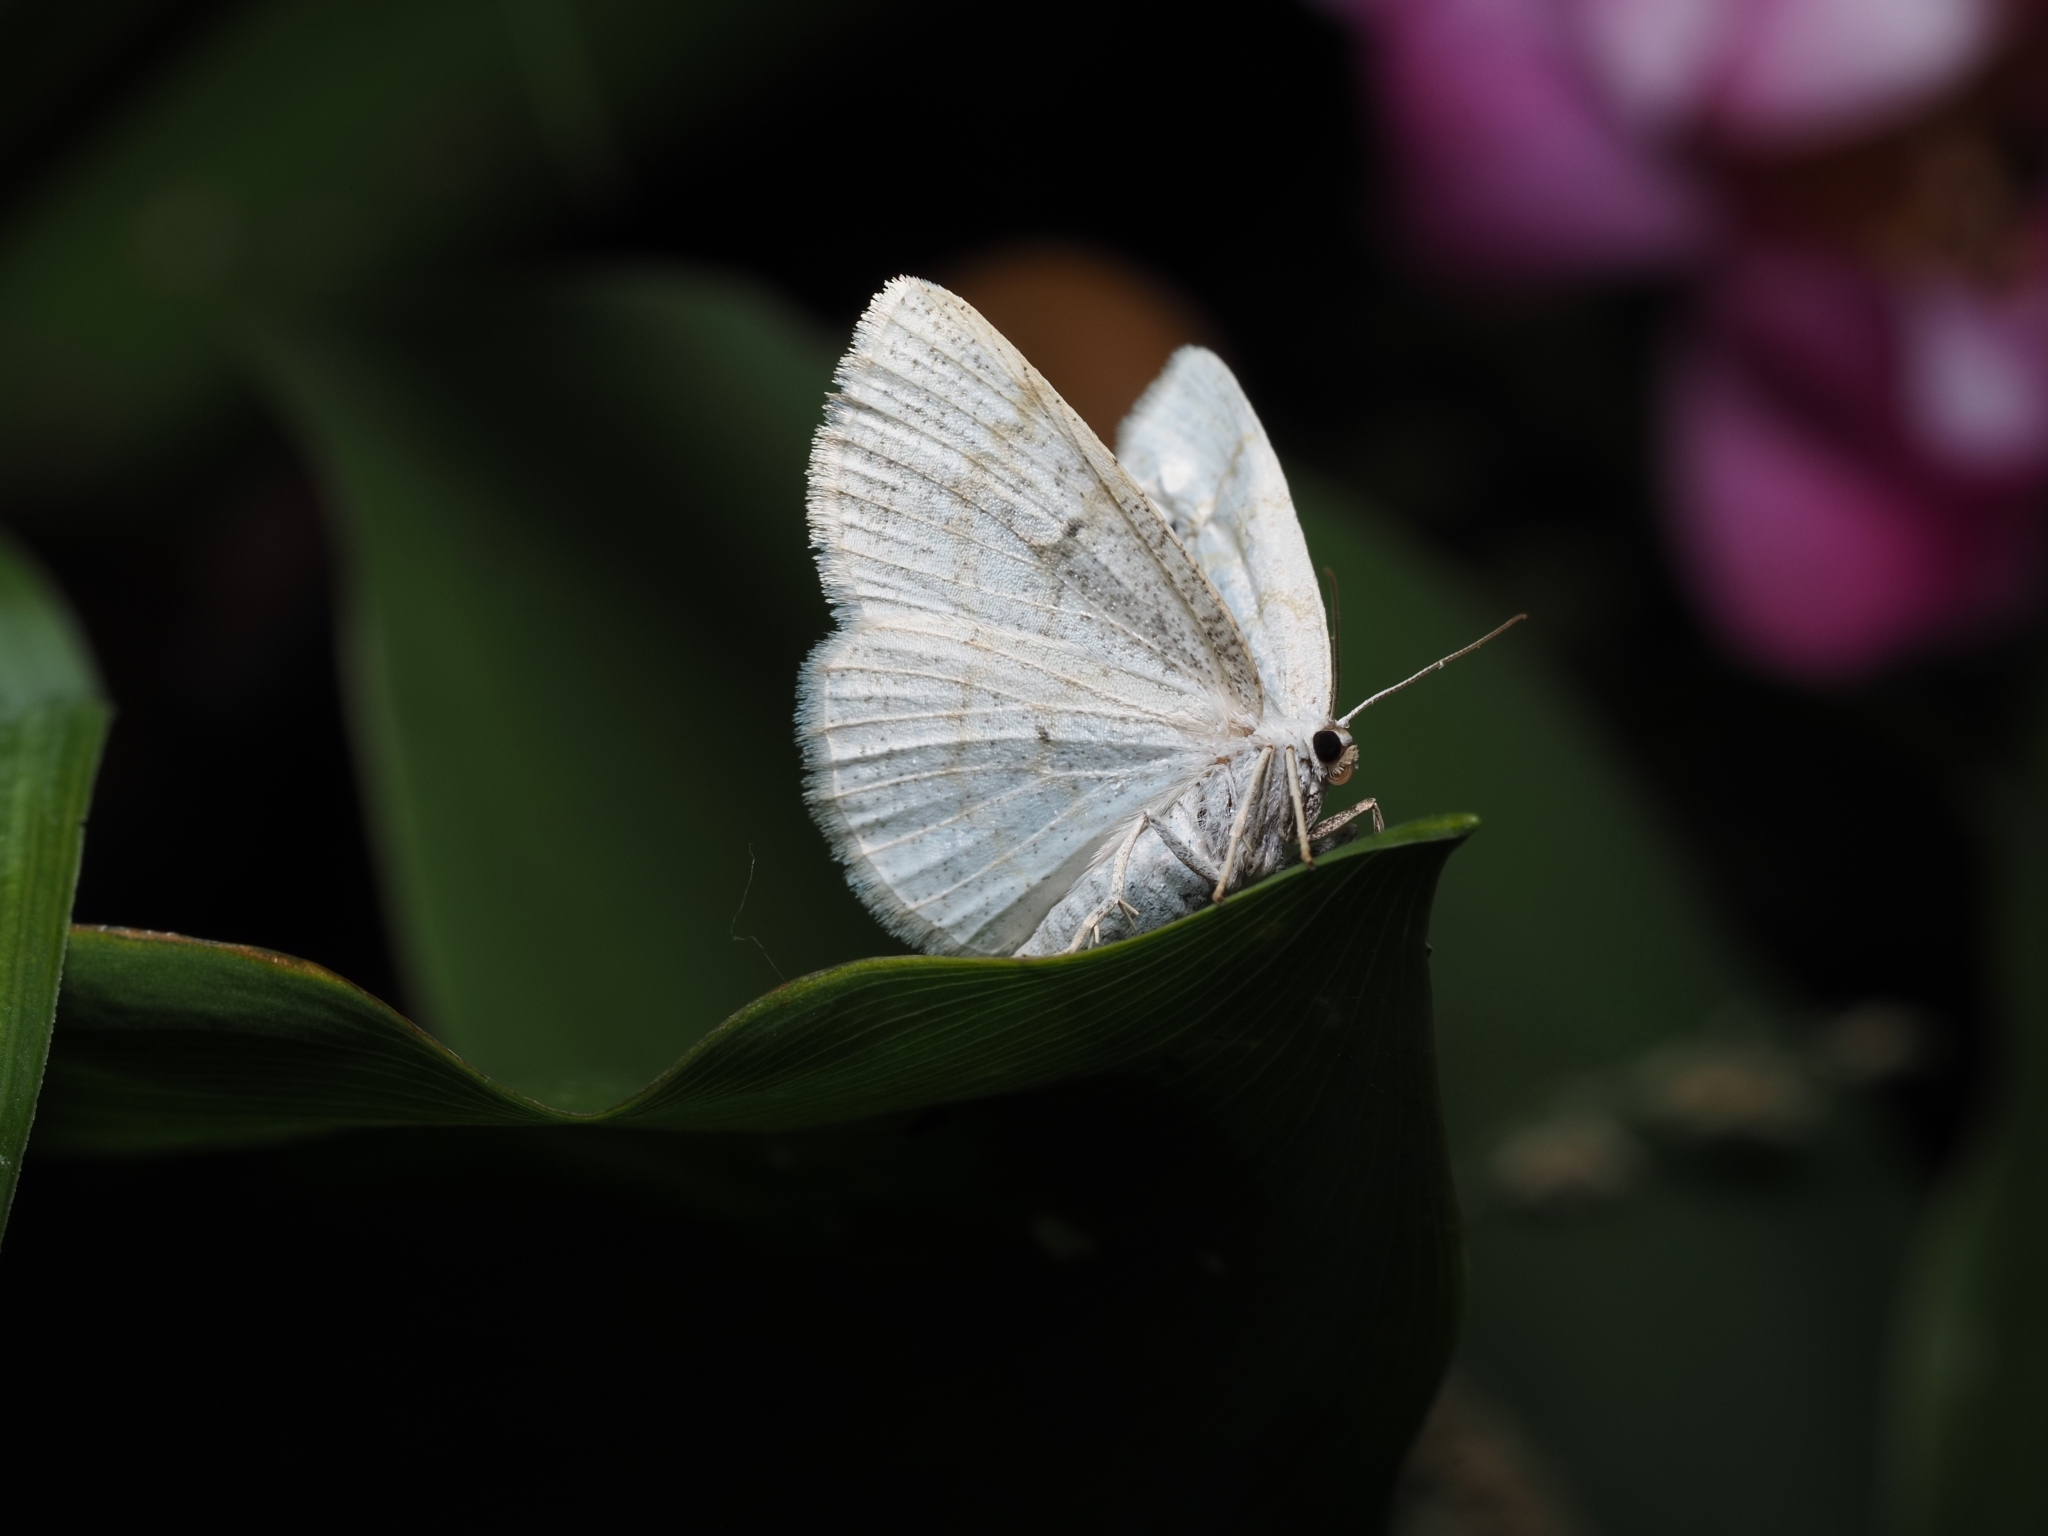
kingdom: Animalia
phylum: Arthropoda
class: Insecta
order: Lepidoptera
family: Geometridae
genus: Cabera
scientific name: Cabera exanthemata
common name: Common wave
